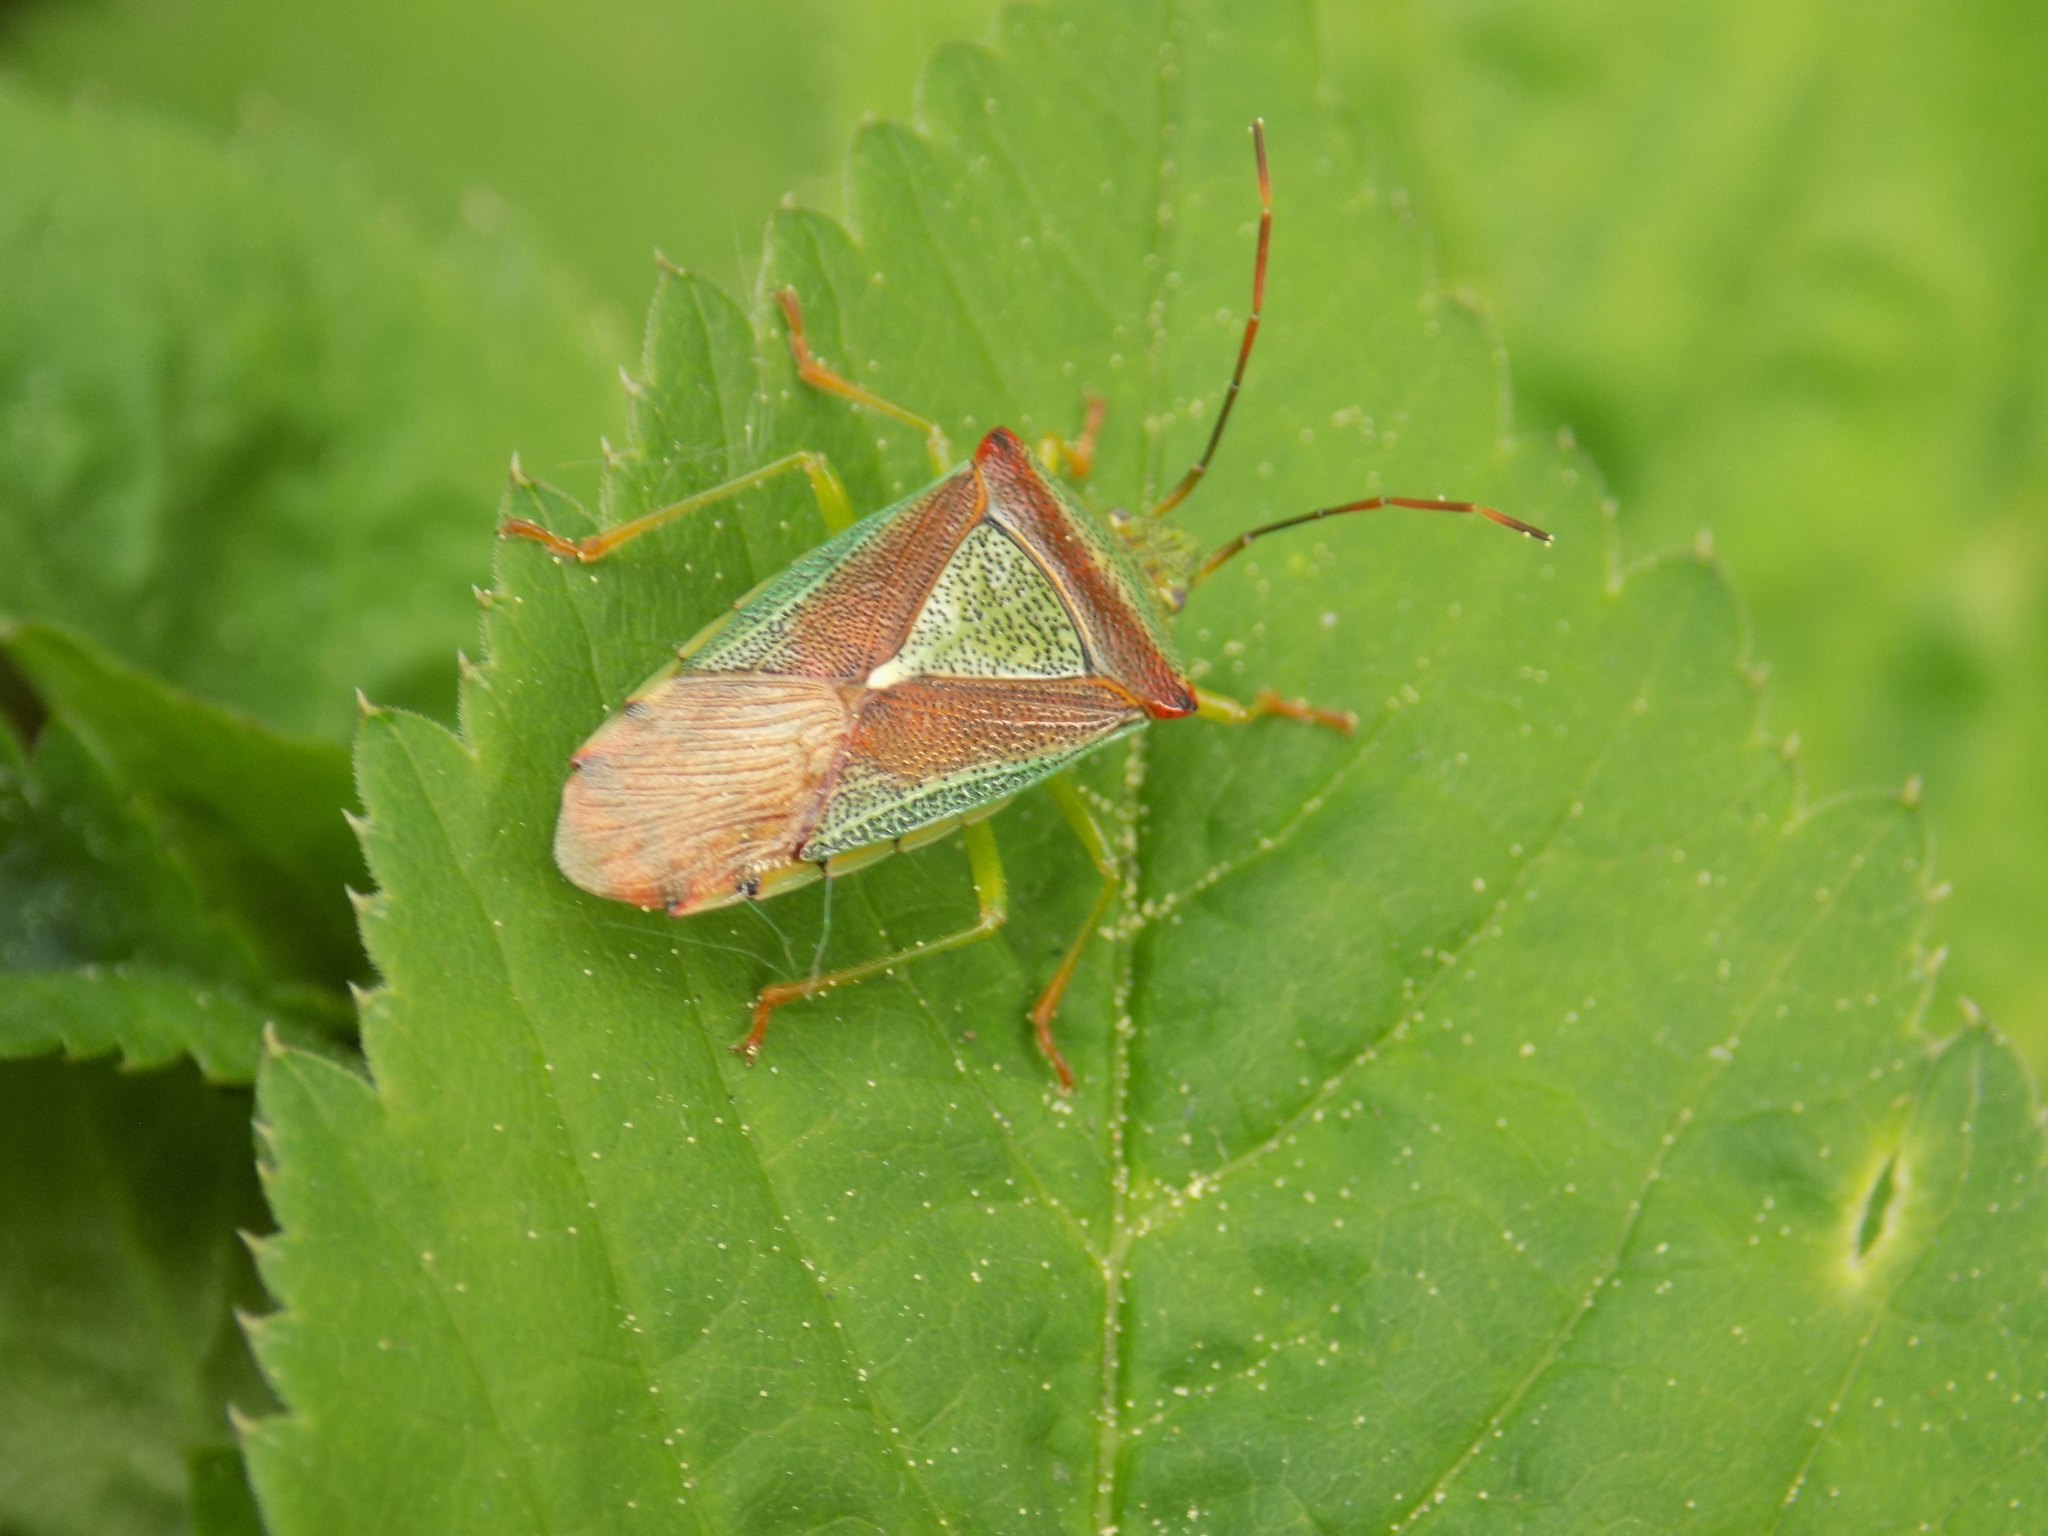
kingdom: Animalia
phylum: Arthropoda
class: Insecta
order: Hemiptera
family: Acanthosomatidae
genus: Acanthosoma
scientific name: Acanthosoma spinicolle
